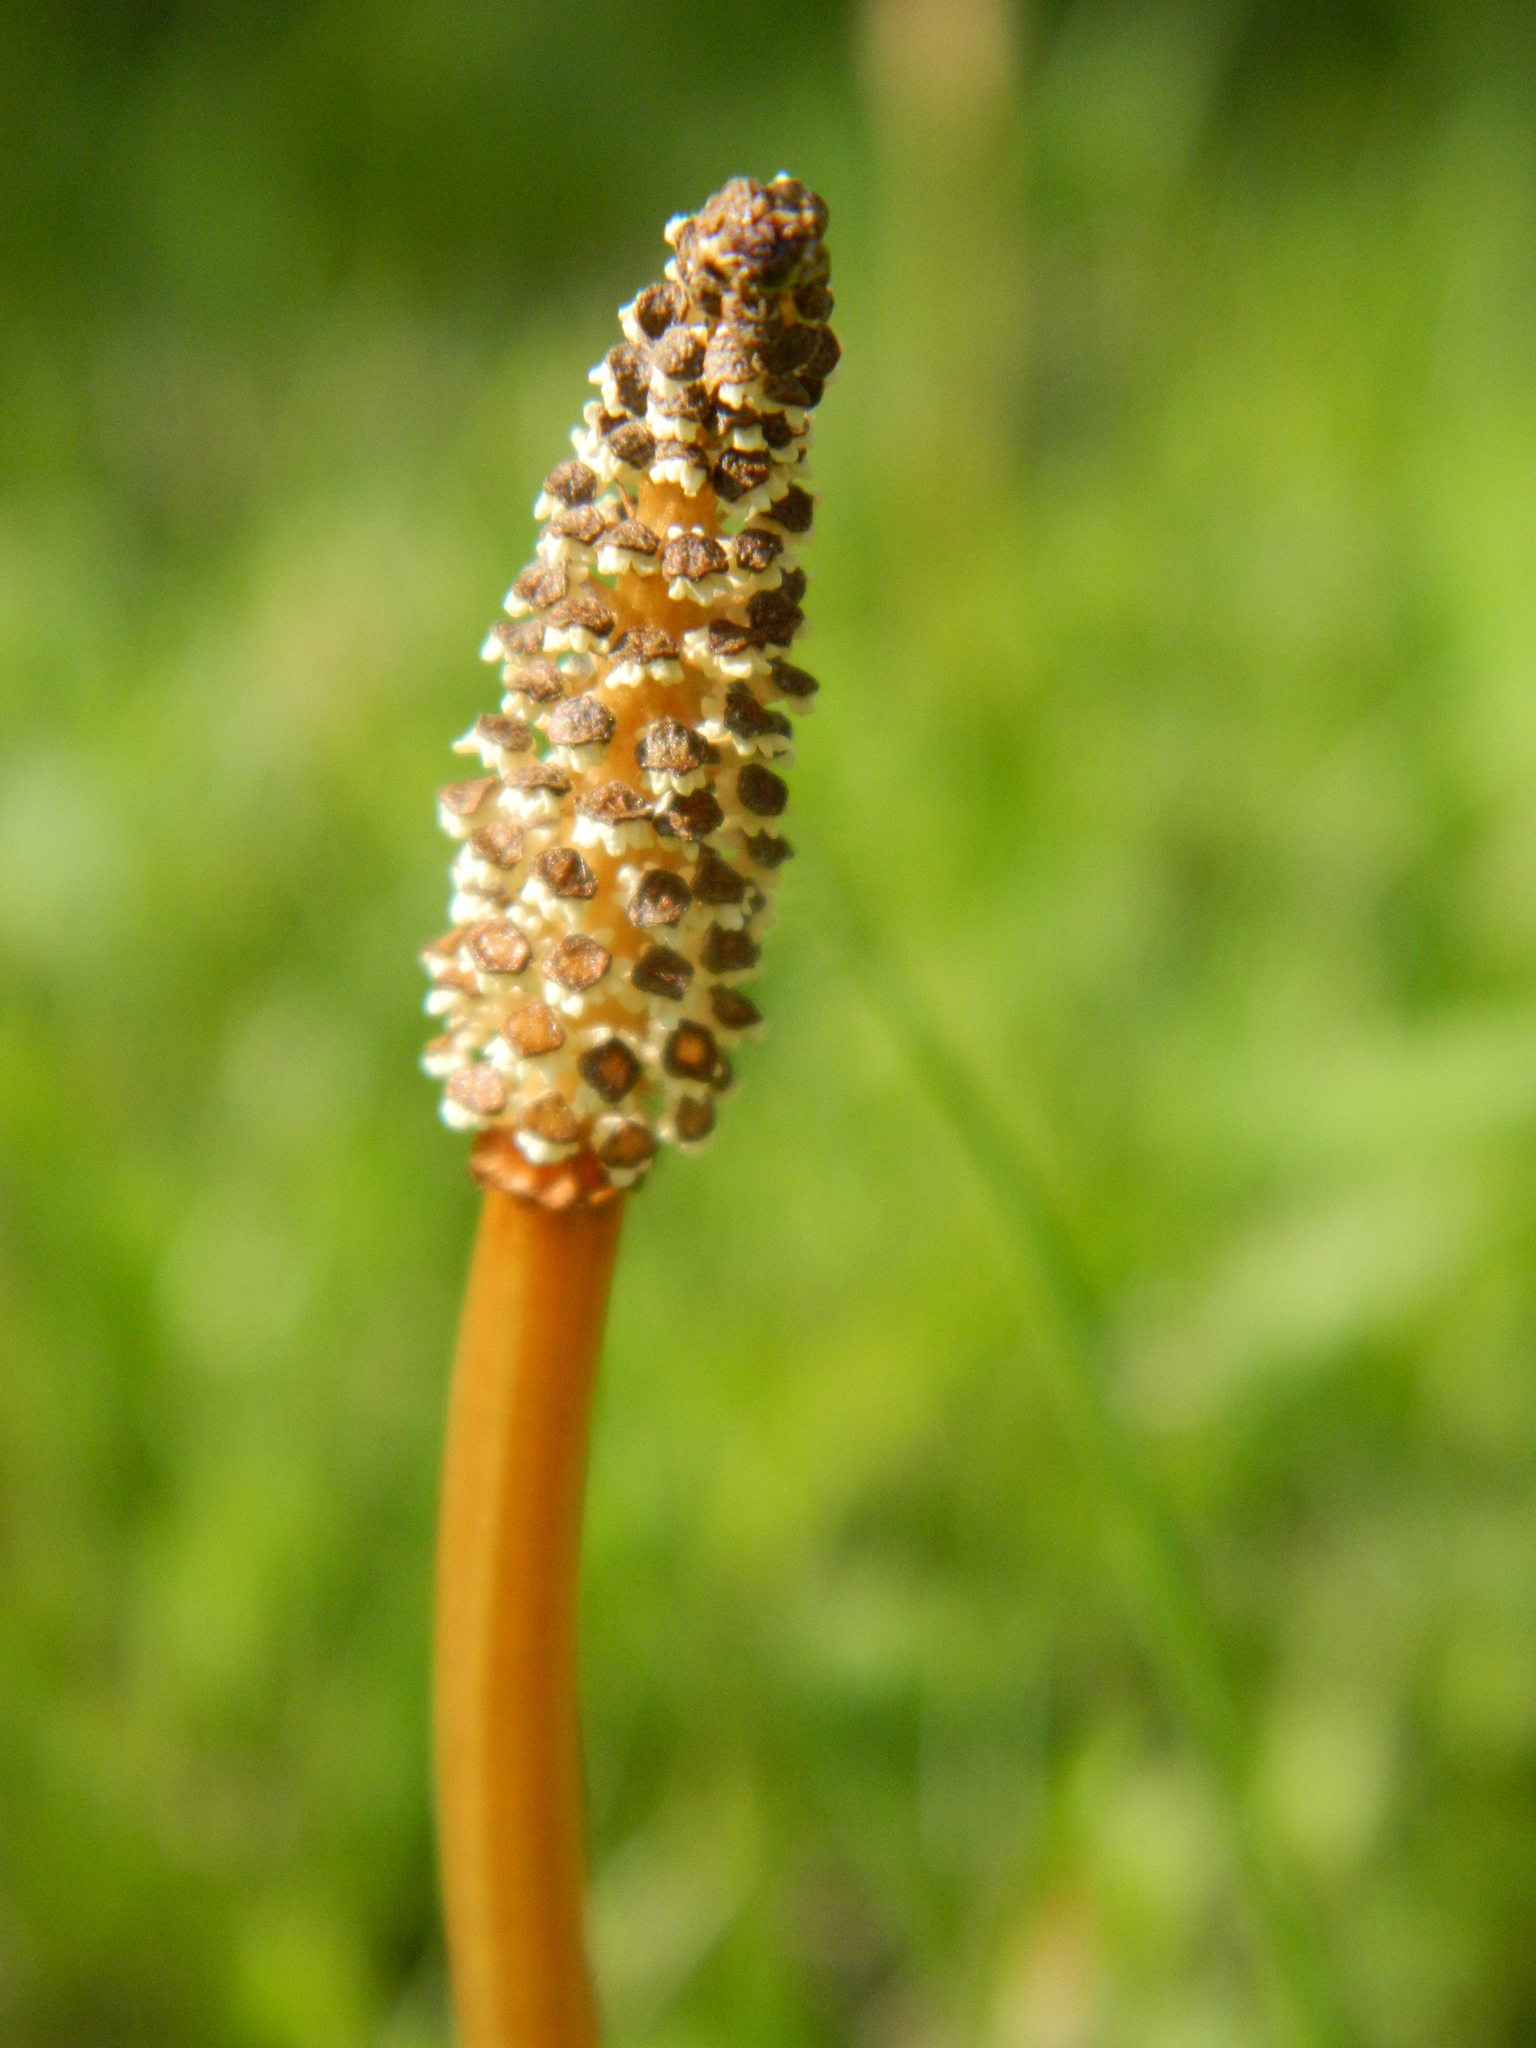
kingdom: Plantae
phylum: Tracheophyta
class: Polypodiopsida
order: Equisetales
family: Equisetaceae
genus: Equisetum
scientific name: Equisetum arvense
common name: Field horsetail
